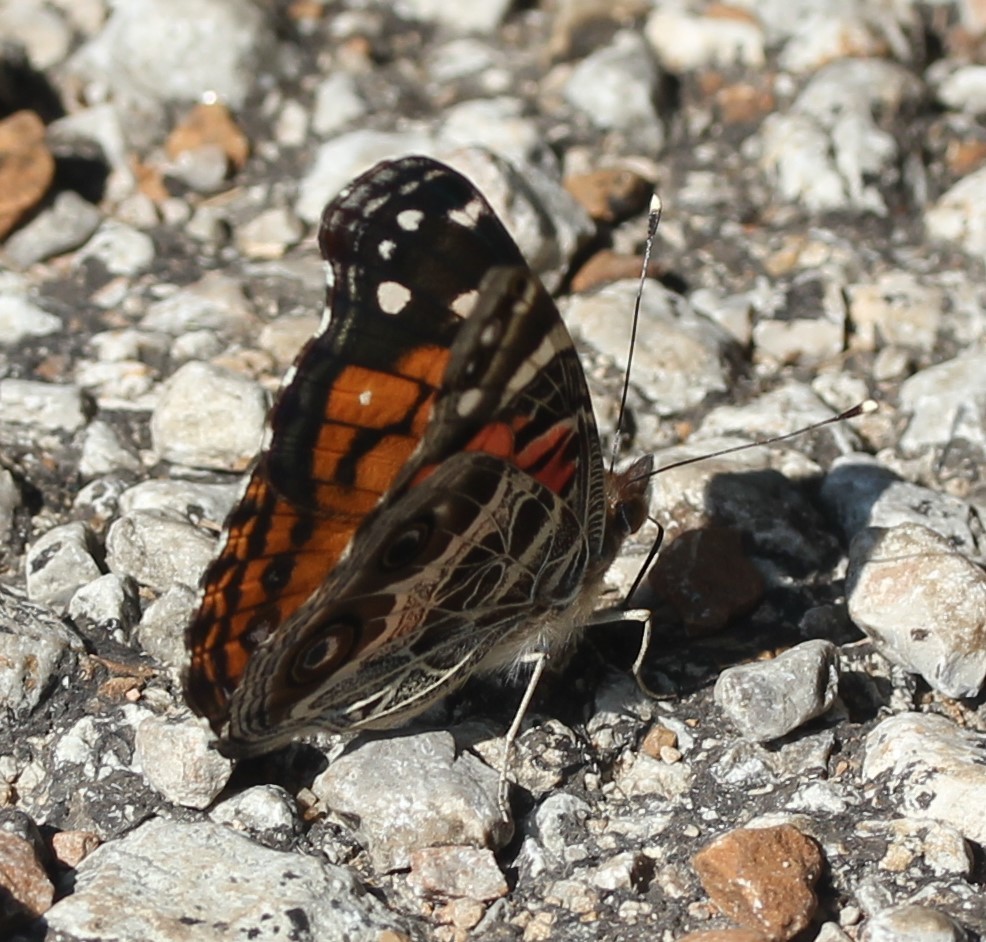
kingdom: Animalia
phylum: Arthropoda
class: Insecta
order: Lepidoptera
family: Nymphalidae
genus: Vanessa
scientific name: Vanessa virginiensis
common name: American lady
